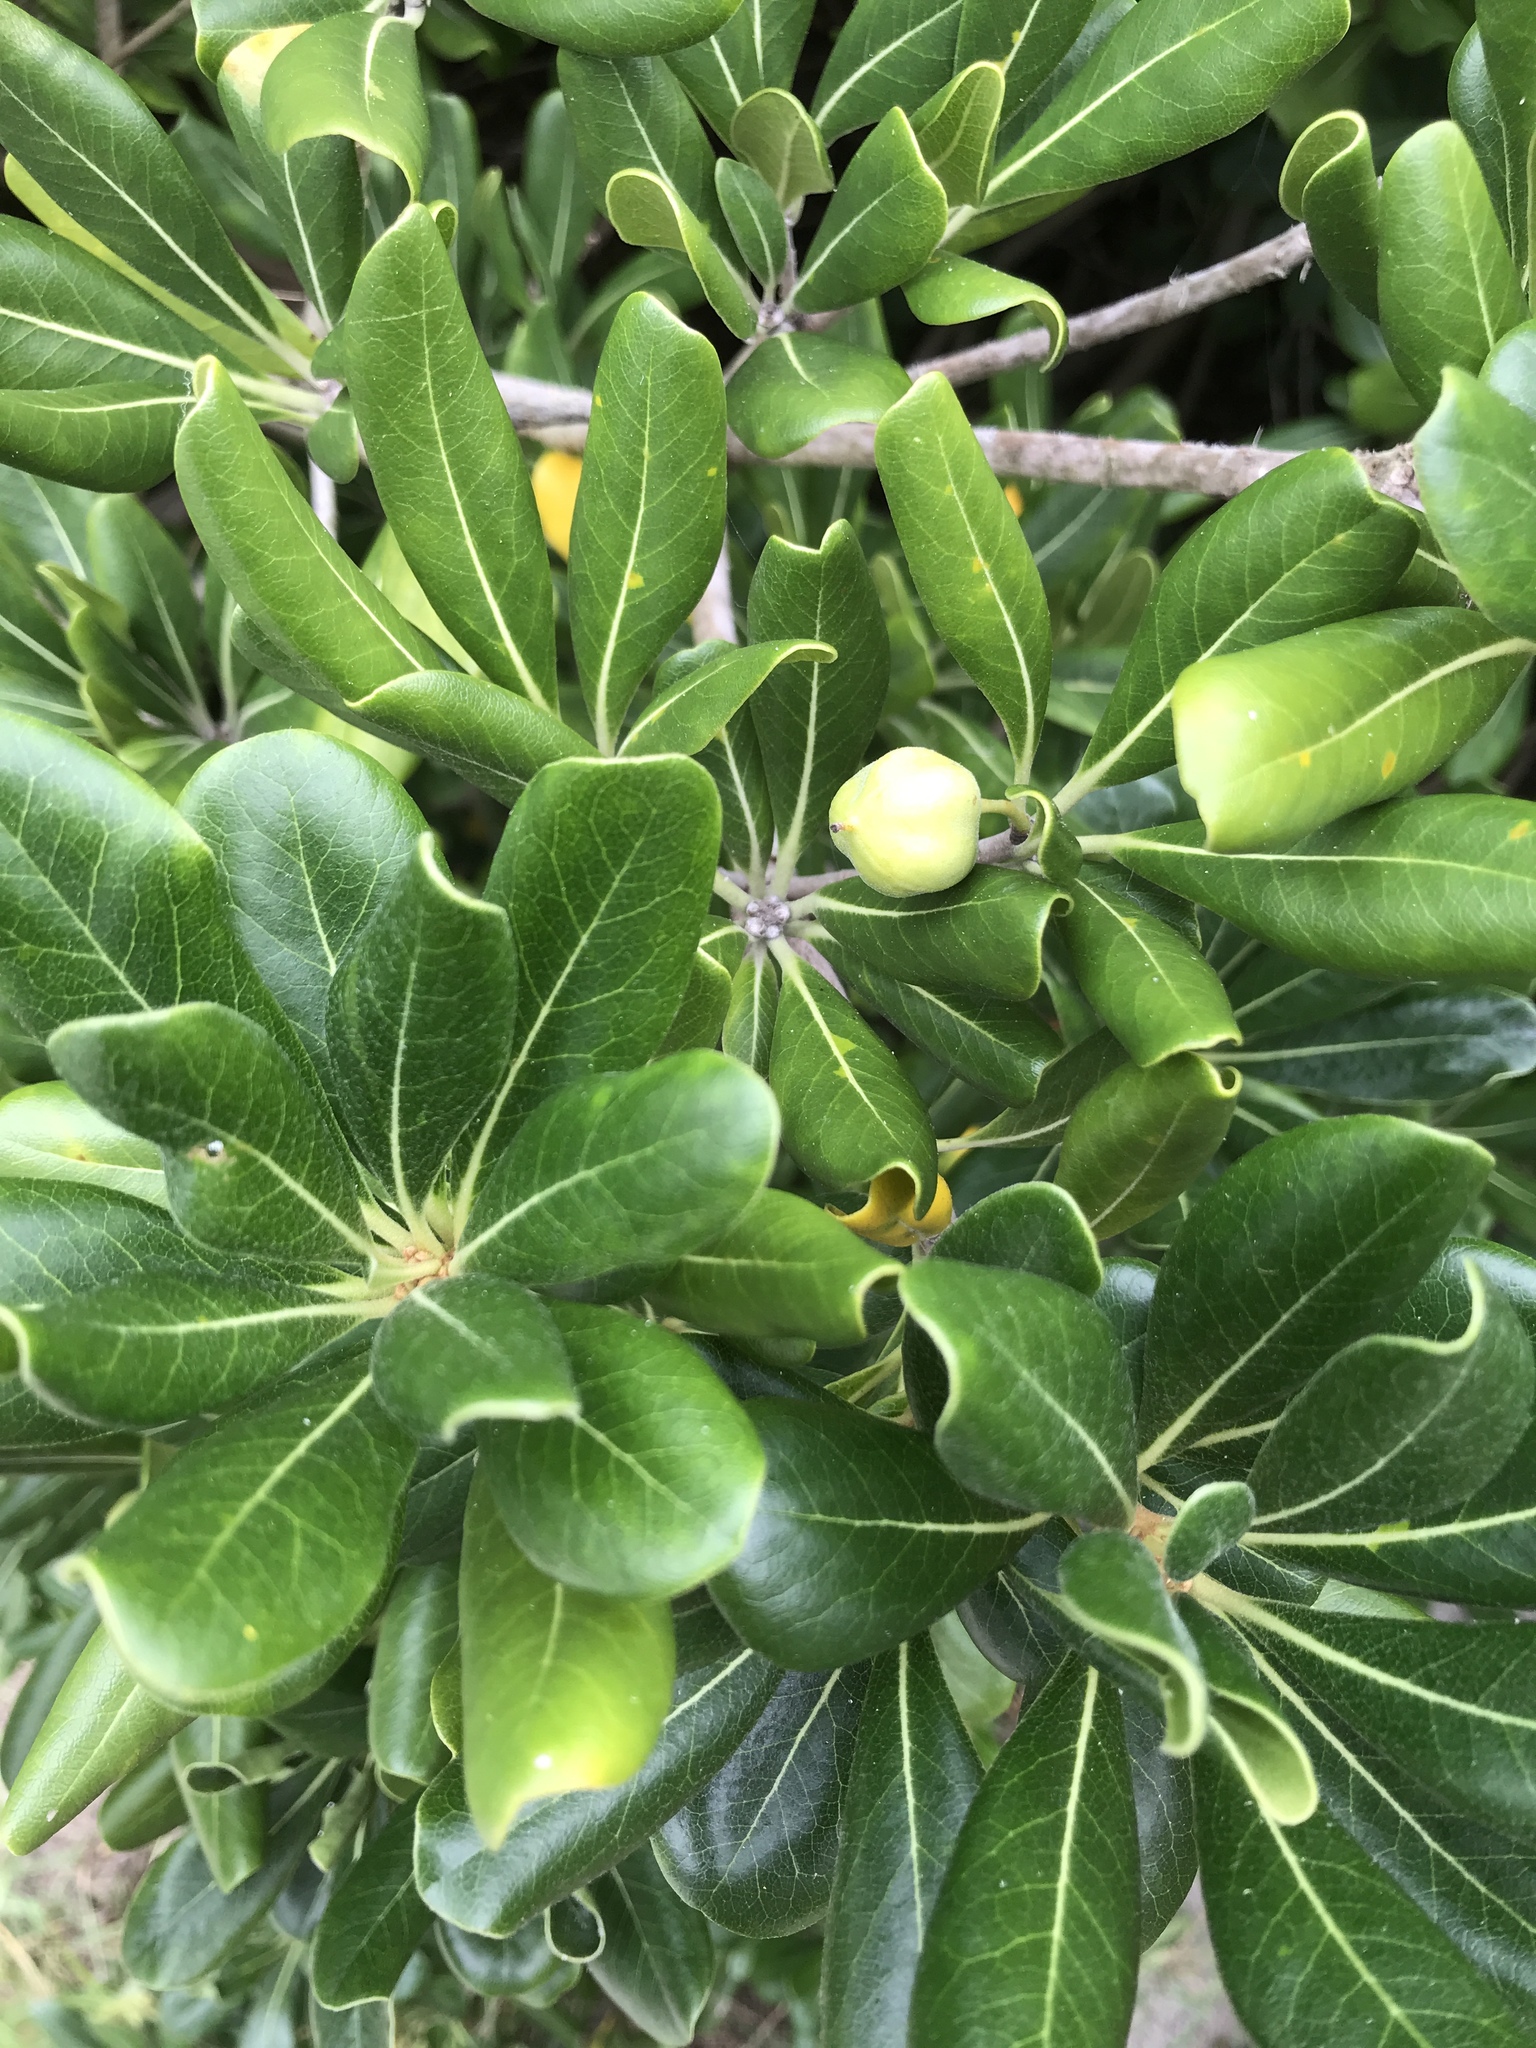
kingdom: Plantae
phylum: Tracheophyta
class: Magnoliopsida
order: Apiales
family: Pittosporaceae
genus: Pittosporum
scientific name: Pittosporum tobira
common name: Japanese cheesewood
